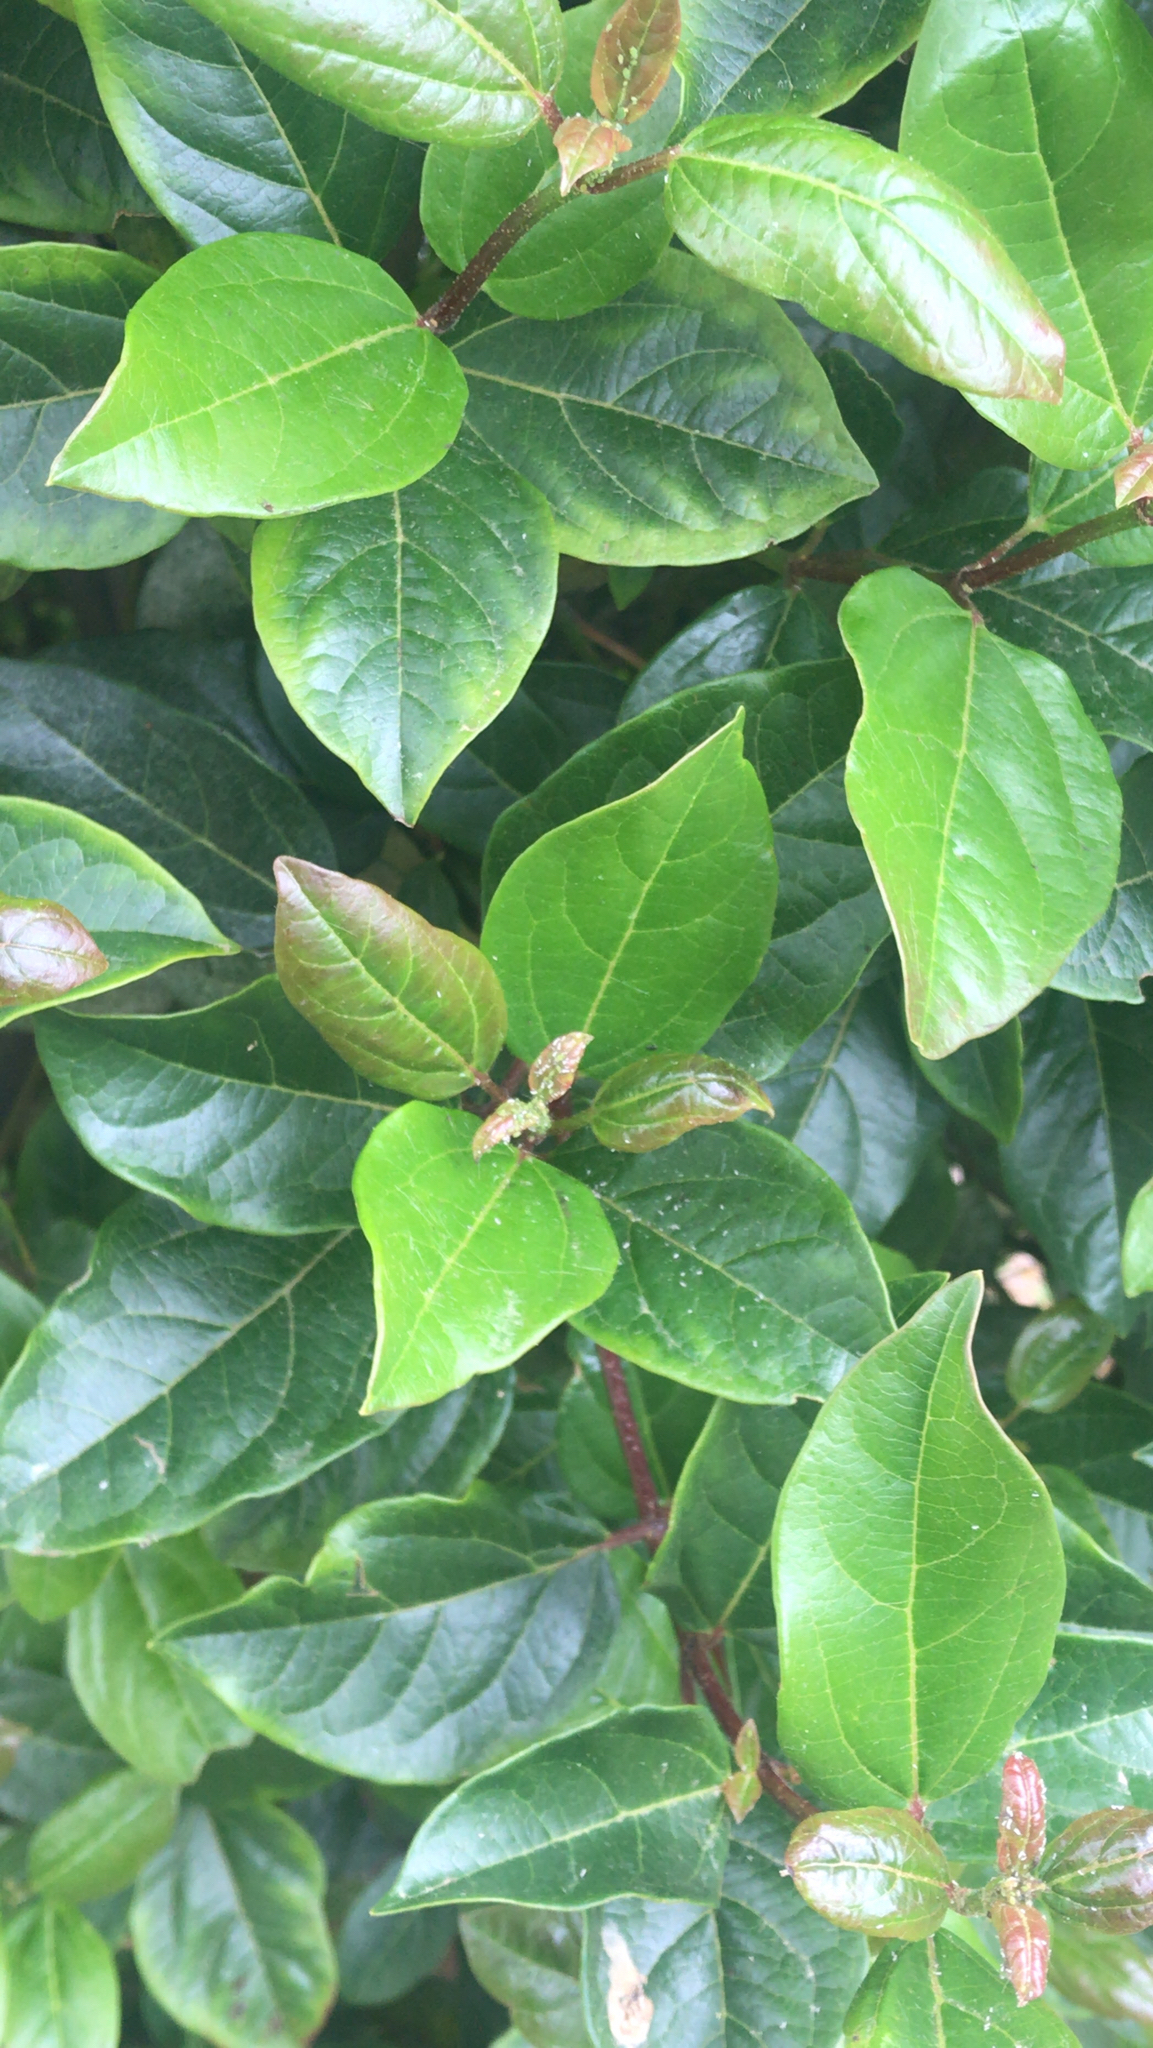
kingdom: Plantae
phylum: Tracheophyta
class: Magnoliopsida
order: Dipsacales
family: Viburnaceae
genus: Viburnum
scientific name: Viburnum tinus
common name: Laurustinus
